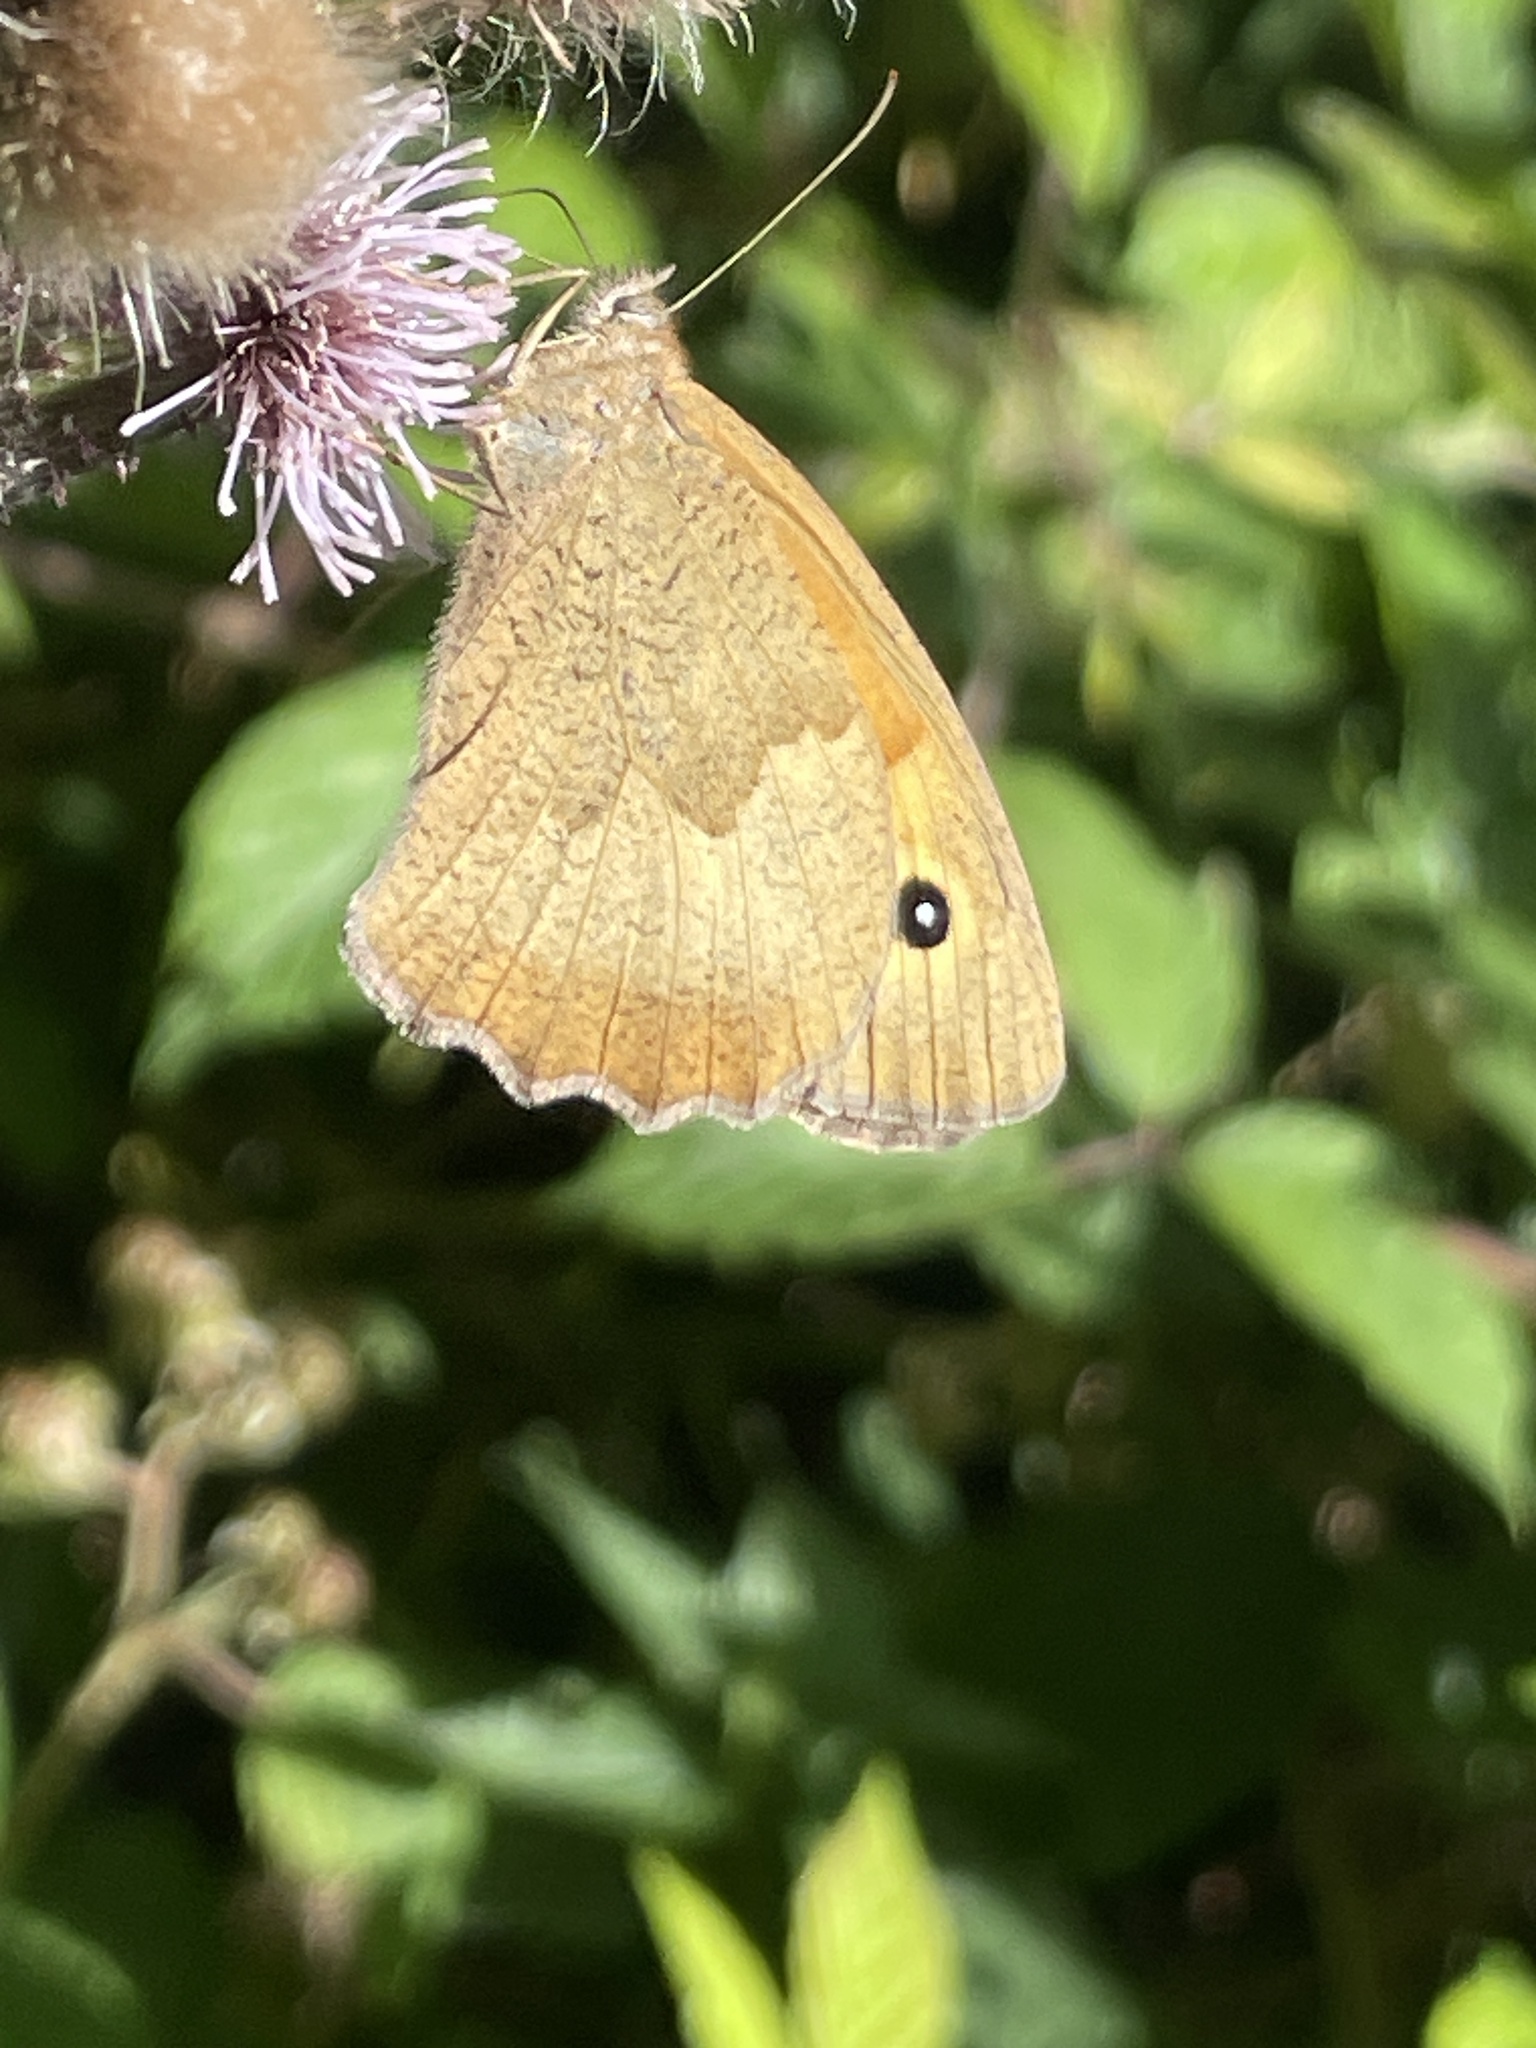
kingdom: Animalia
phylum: Arthropoda
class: Insecta
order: Lepidoptera
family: Nymphalidae
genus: Maniola
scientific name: Maniola jurtina
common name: Meadow brown
